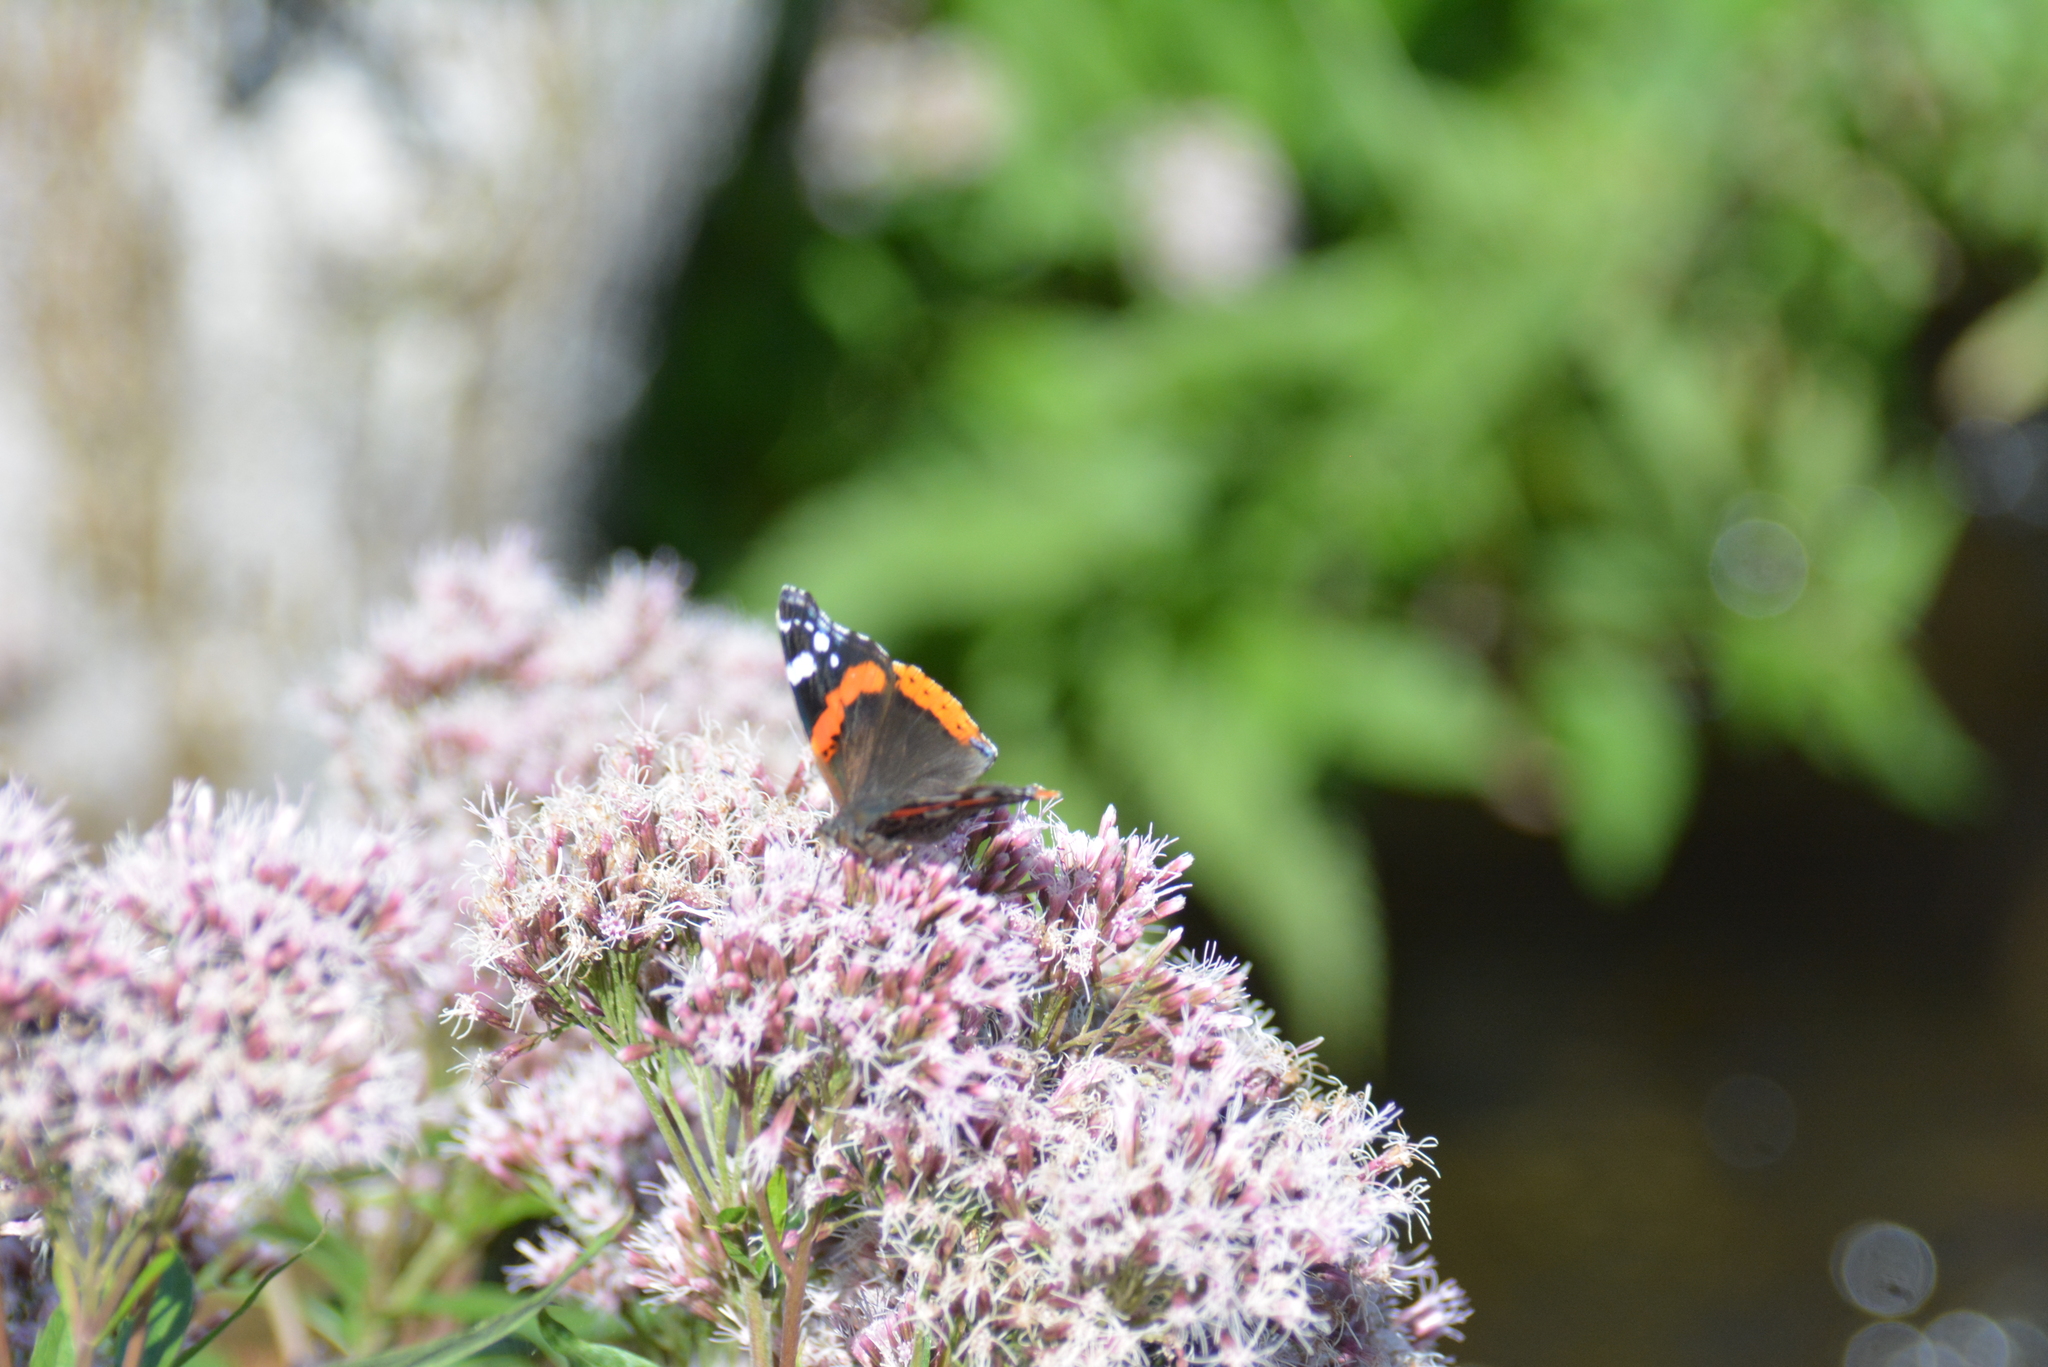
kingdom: Animalia
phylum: Arthropoda
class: Insecta
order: Lepidoptera
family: Nymphalidae
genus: Vanessa
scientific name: Vanessa atalanta
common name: Red admiral
